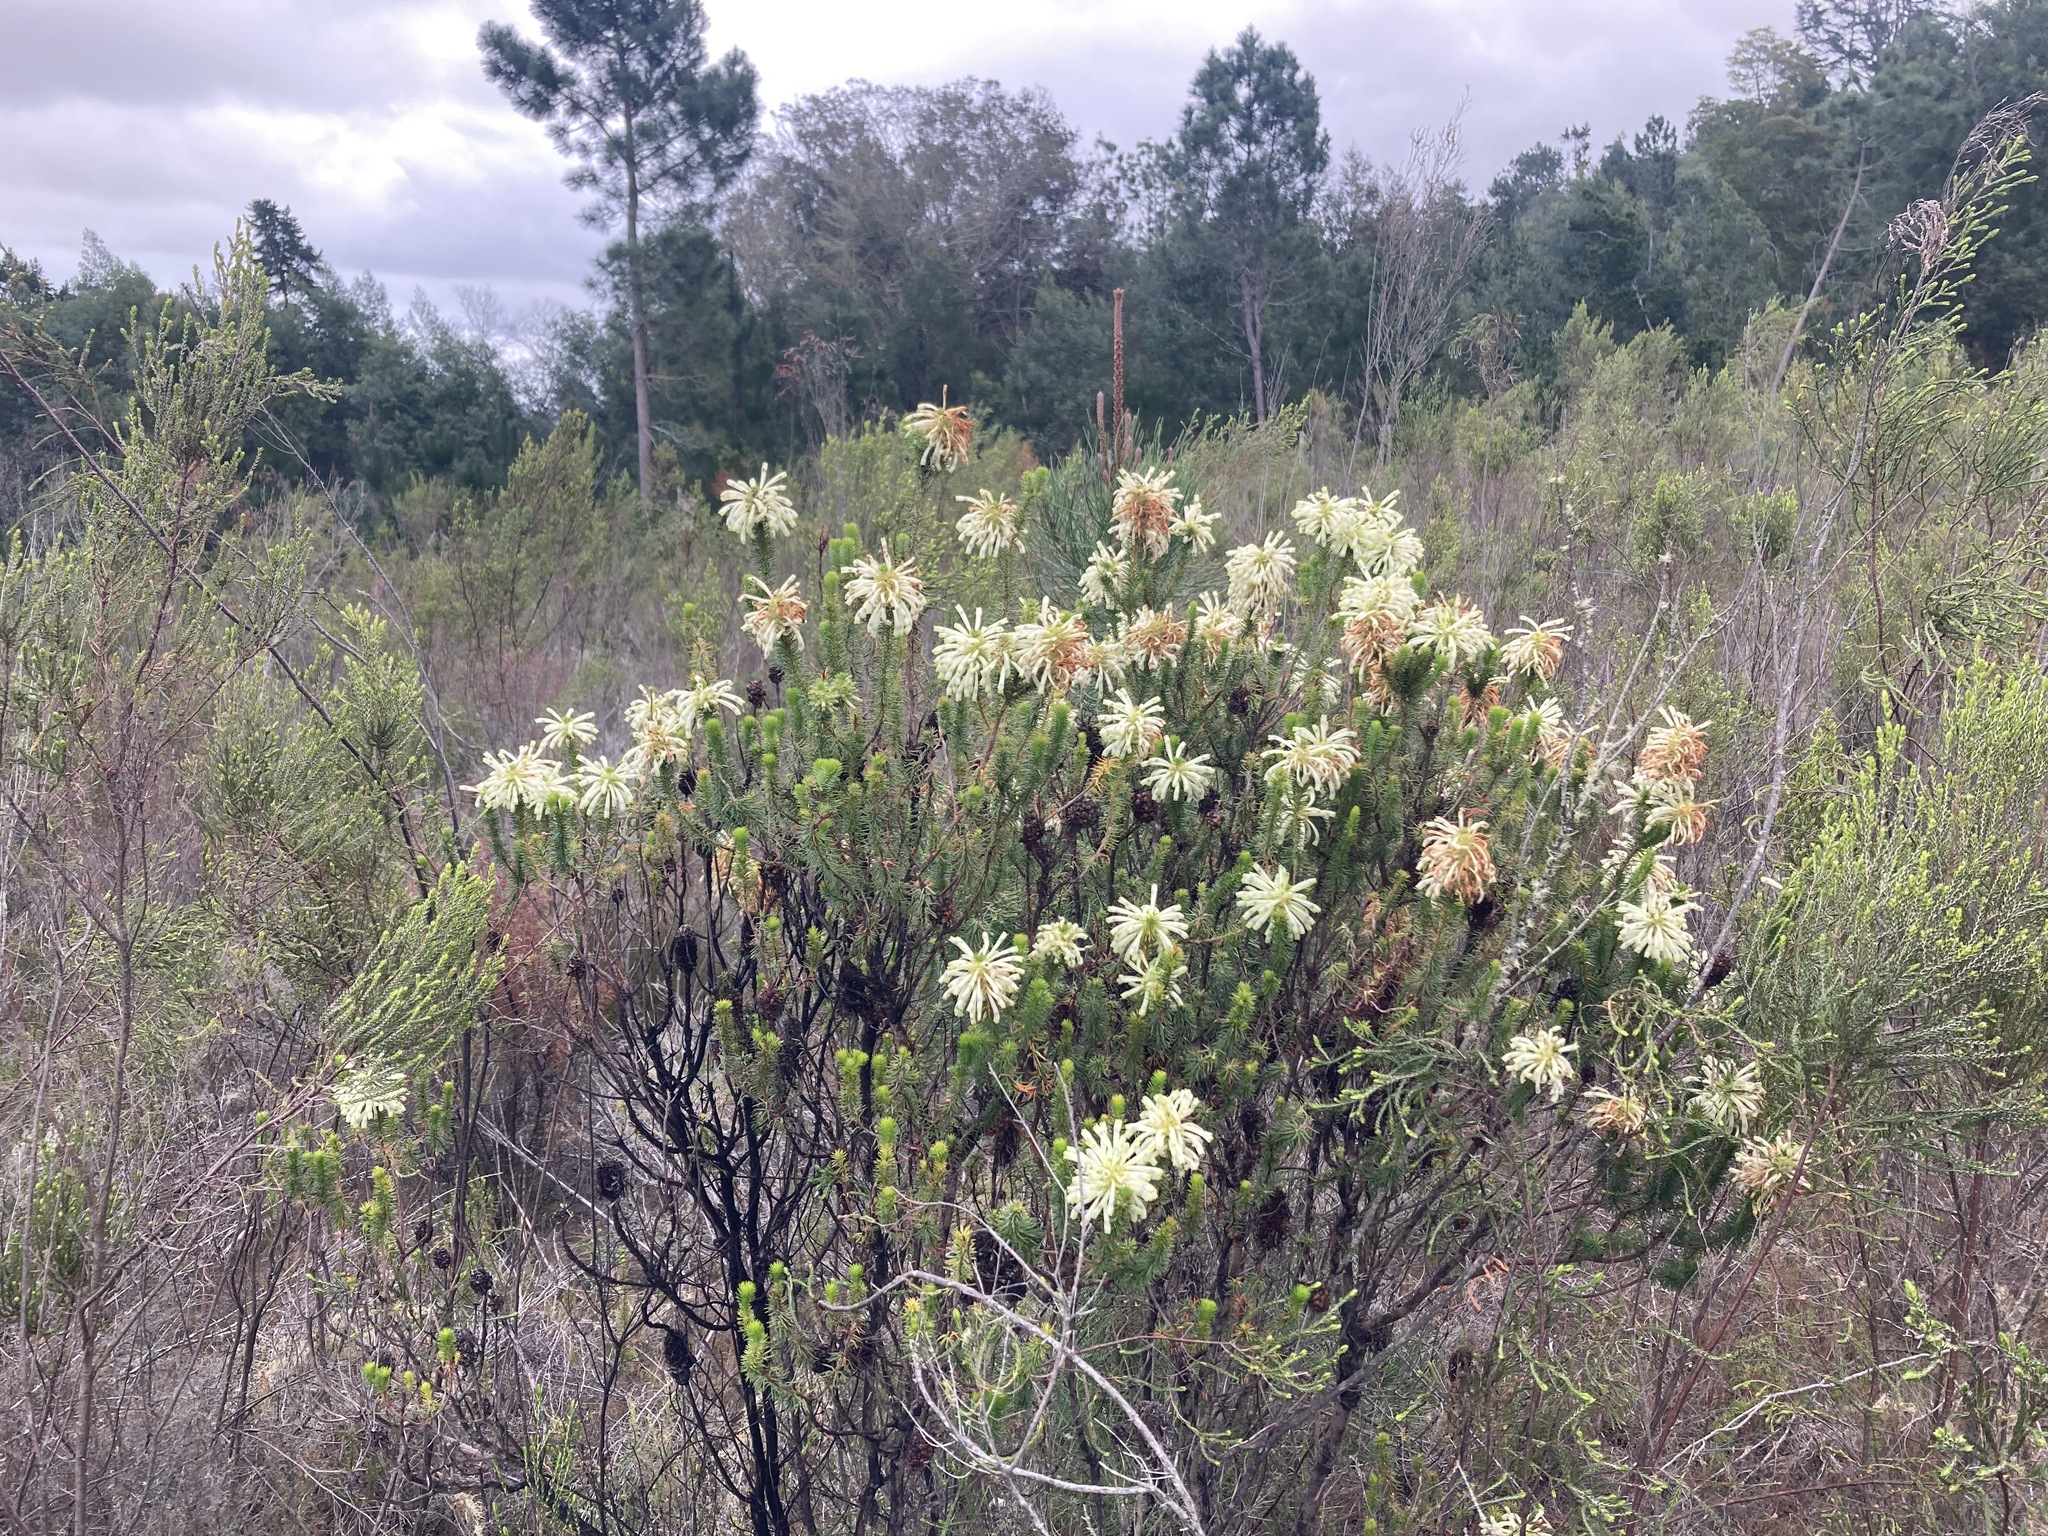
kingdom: Plantae
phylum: Tracheophyta
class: Magnoliopsida
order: Ericales
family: Ericaceae
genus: Erica
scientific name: Erica sessiliflora
